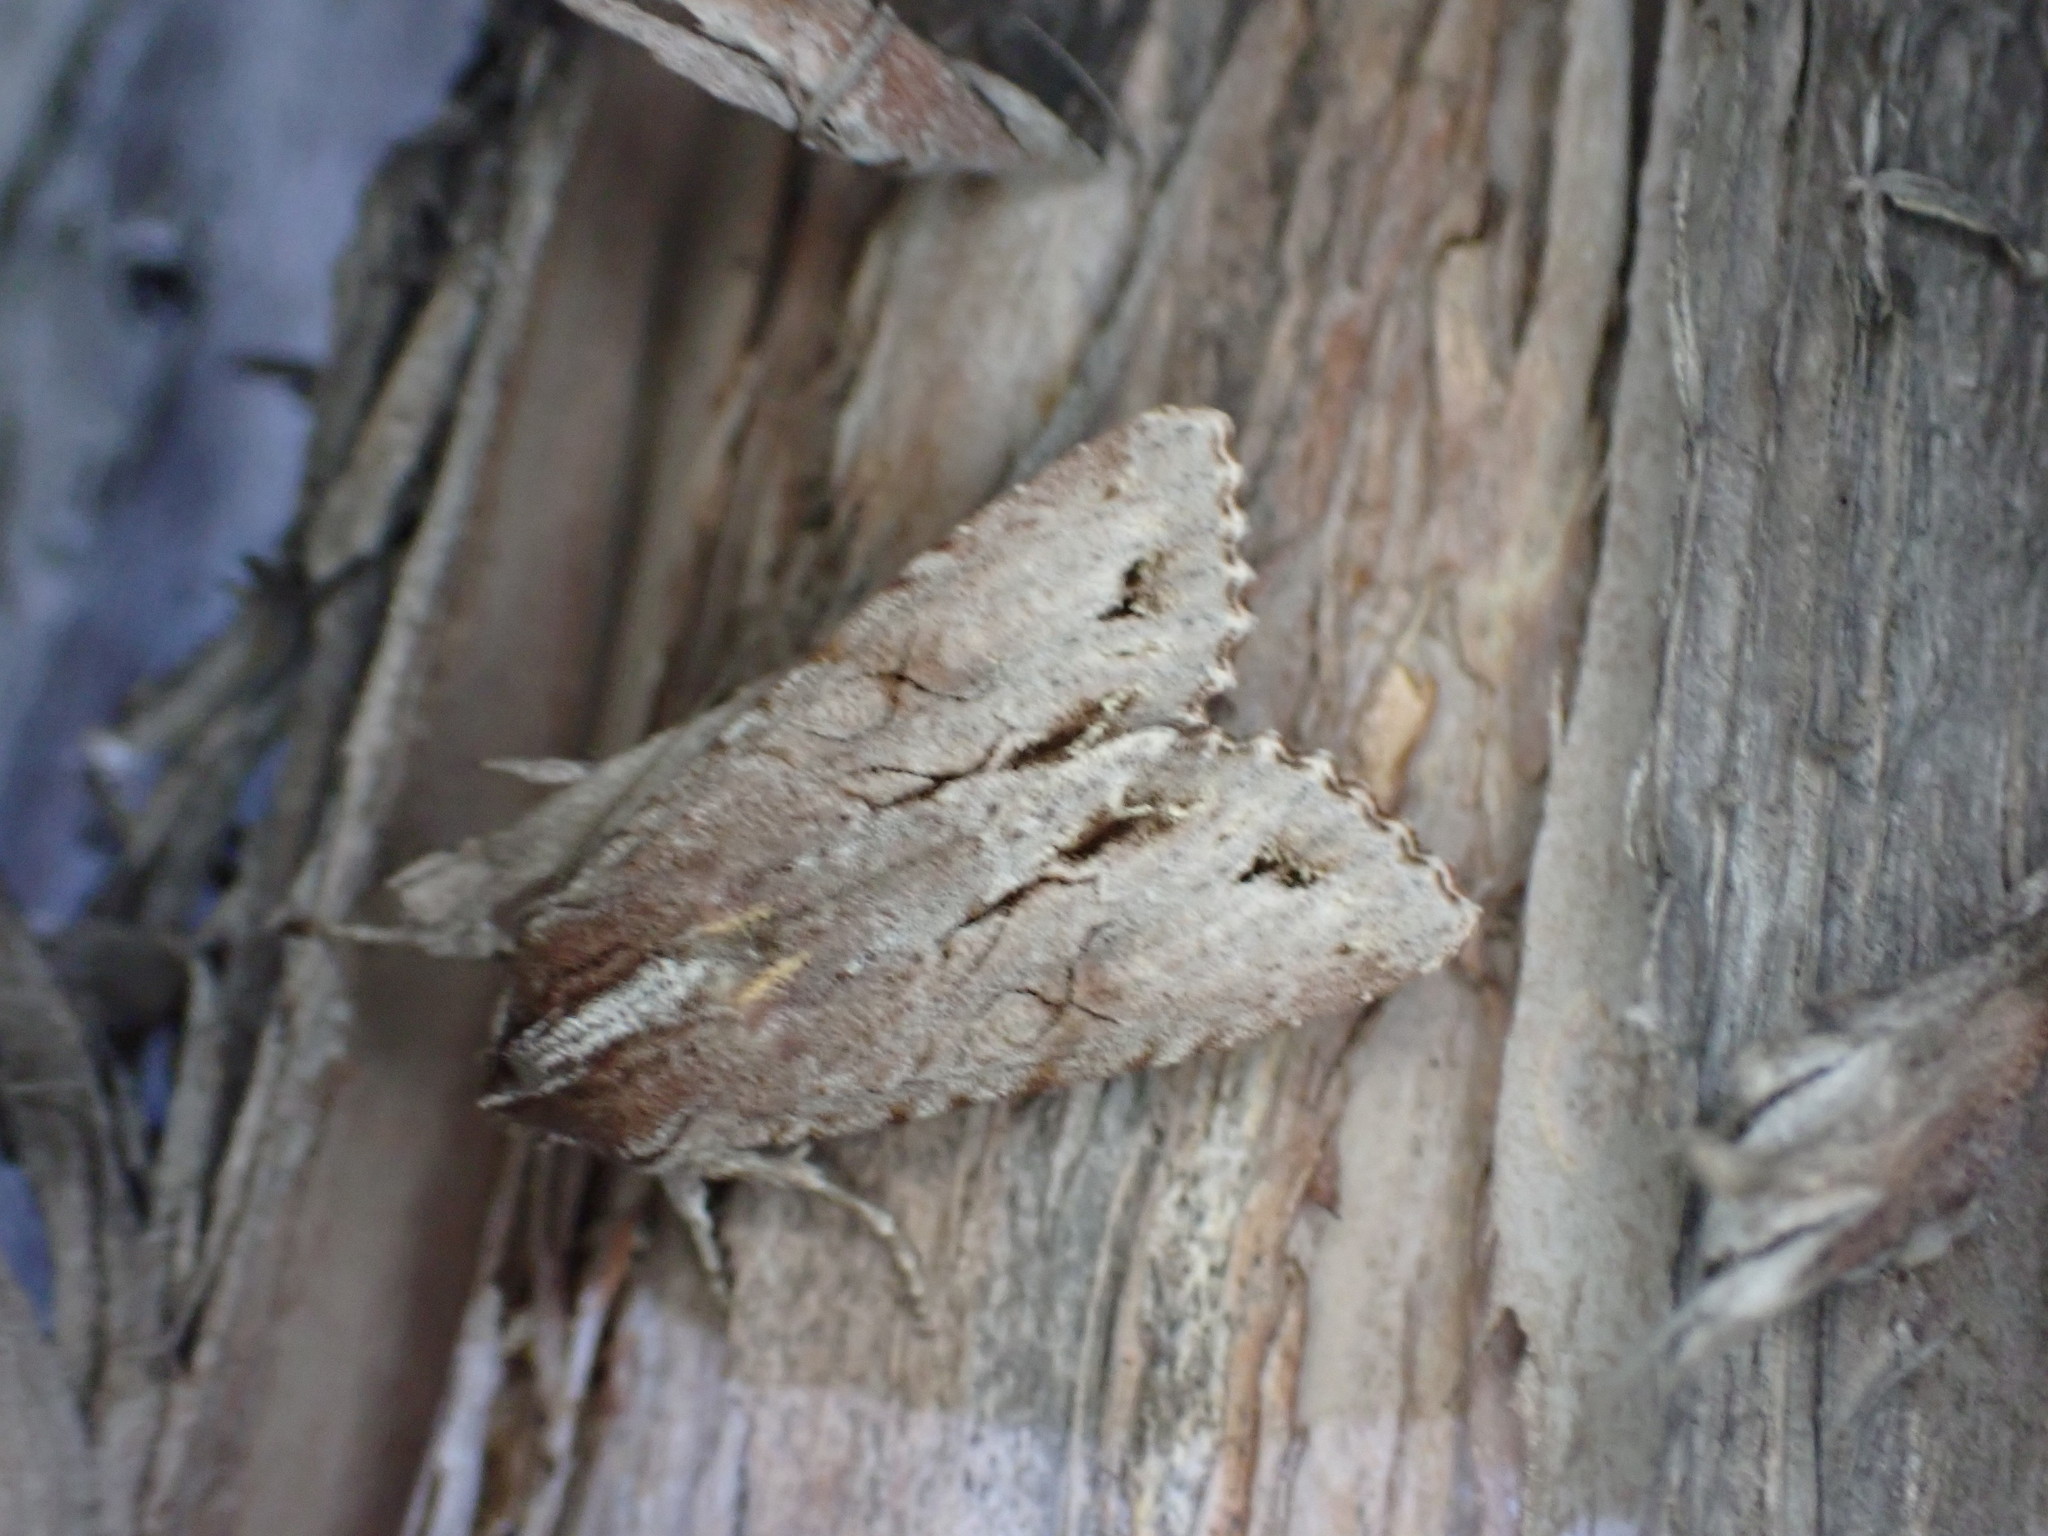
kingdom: Animalia
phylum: Arthropoda
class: Insecta
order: Lepidoptera
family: Noctuidae
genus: Ichneutica
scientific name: Ichneutica
